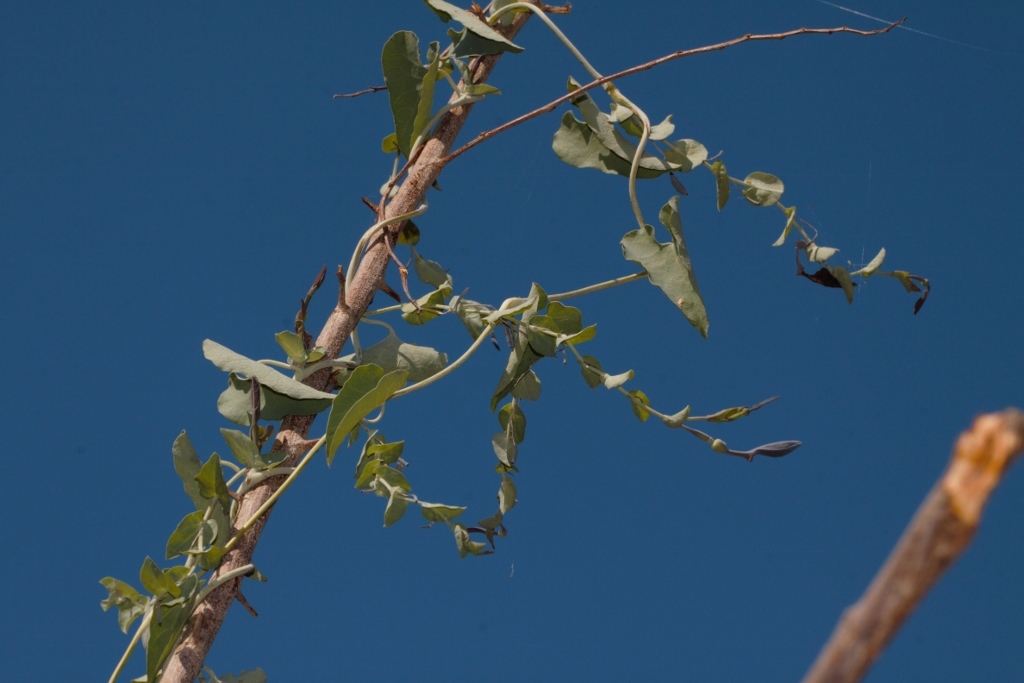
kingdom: Plantae
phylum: Tracheophyta
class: Magnoliopsida
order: Piperales
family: Aristolochiaceae
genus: Aristolochia
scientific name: Aristolochia albida
